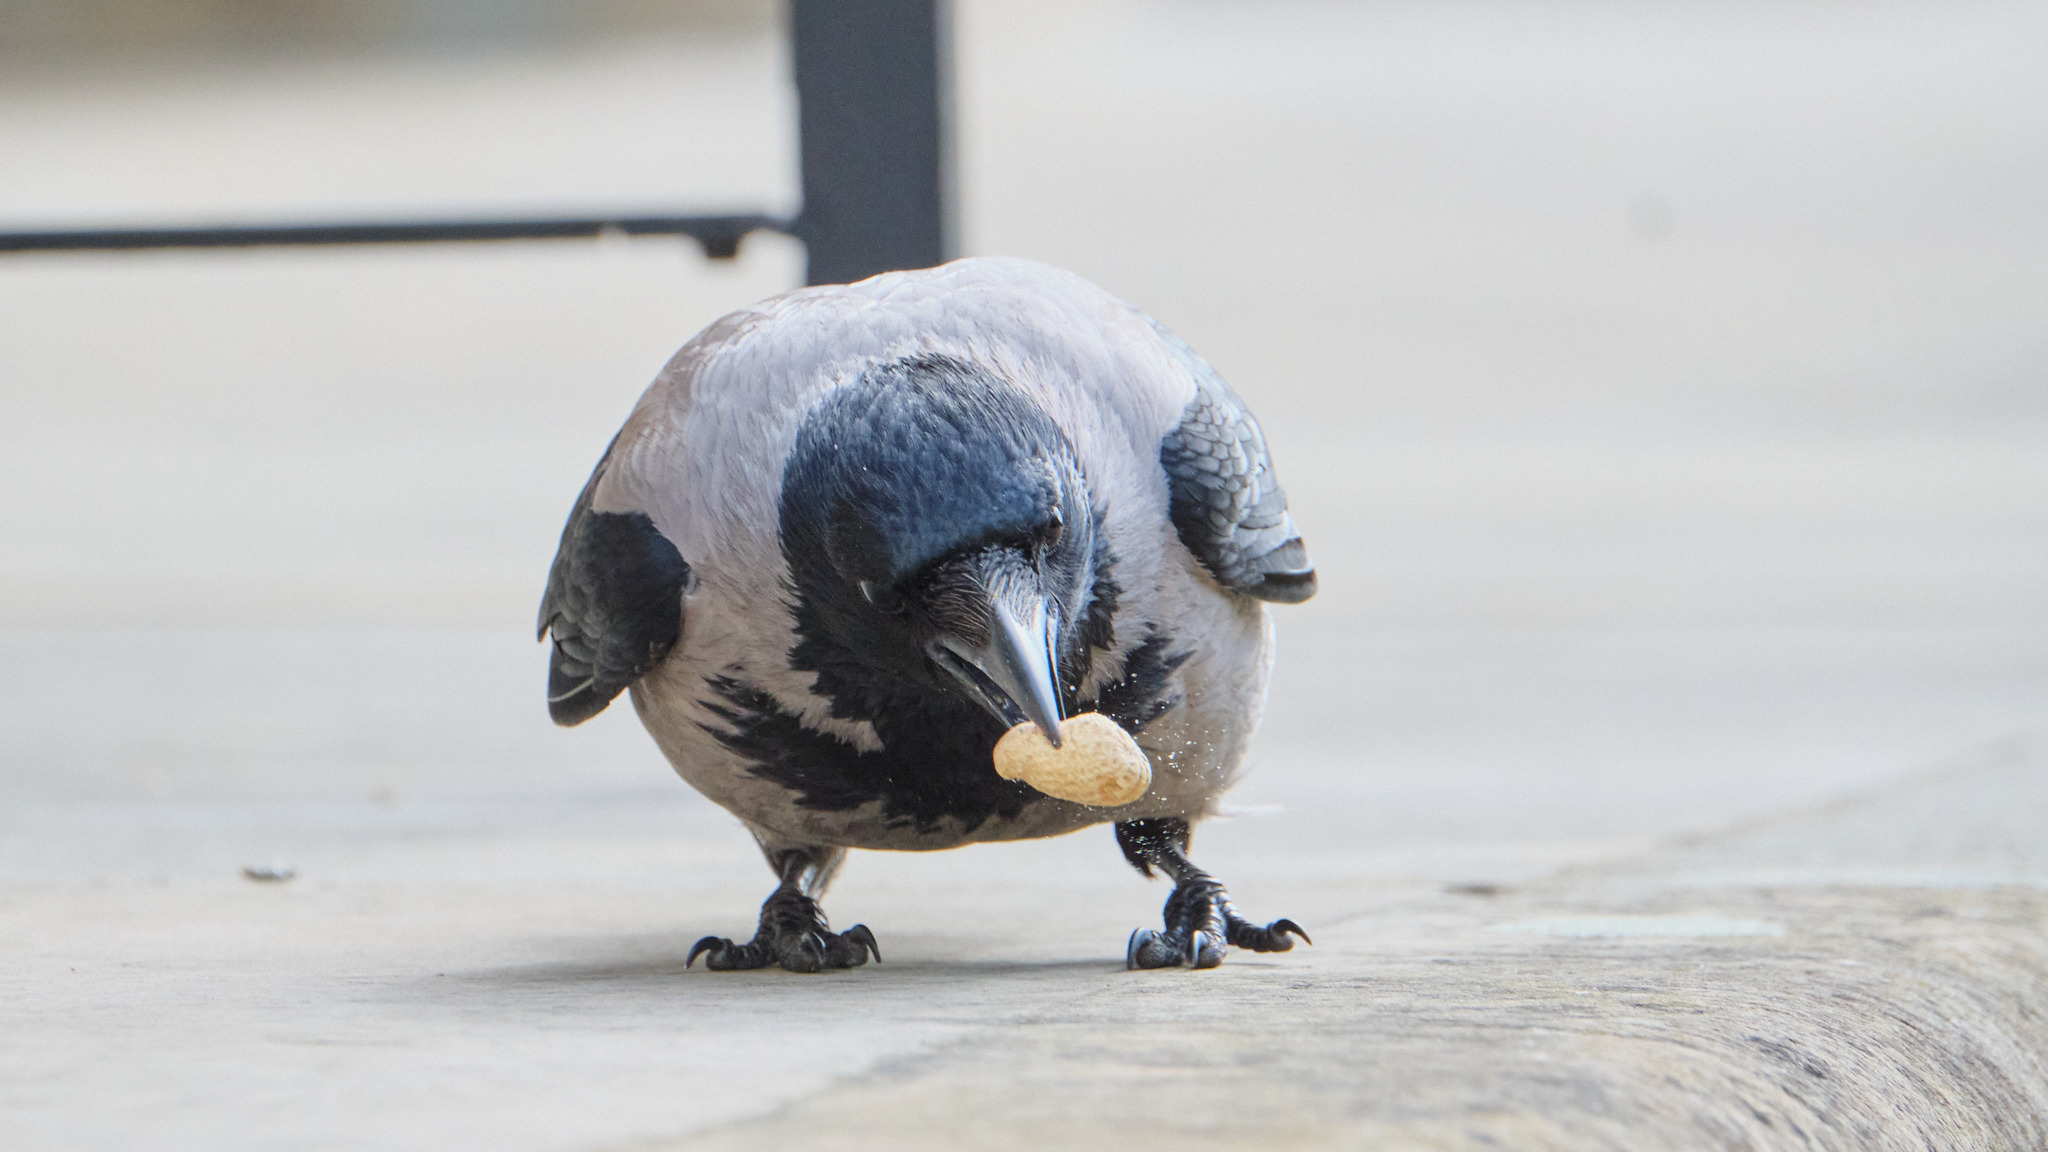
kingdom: Animalia
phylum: Chordata
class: Aves
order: Passeriformes
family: Corvidae
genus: Corvus
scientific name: Corvus cornix
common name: Hooded crow
